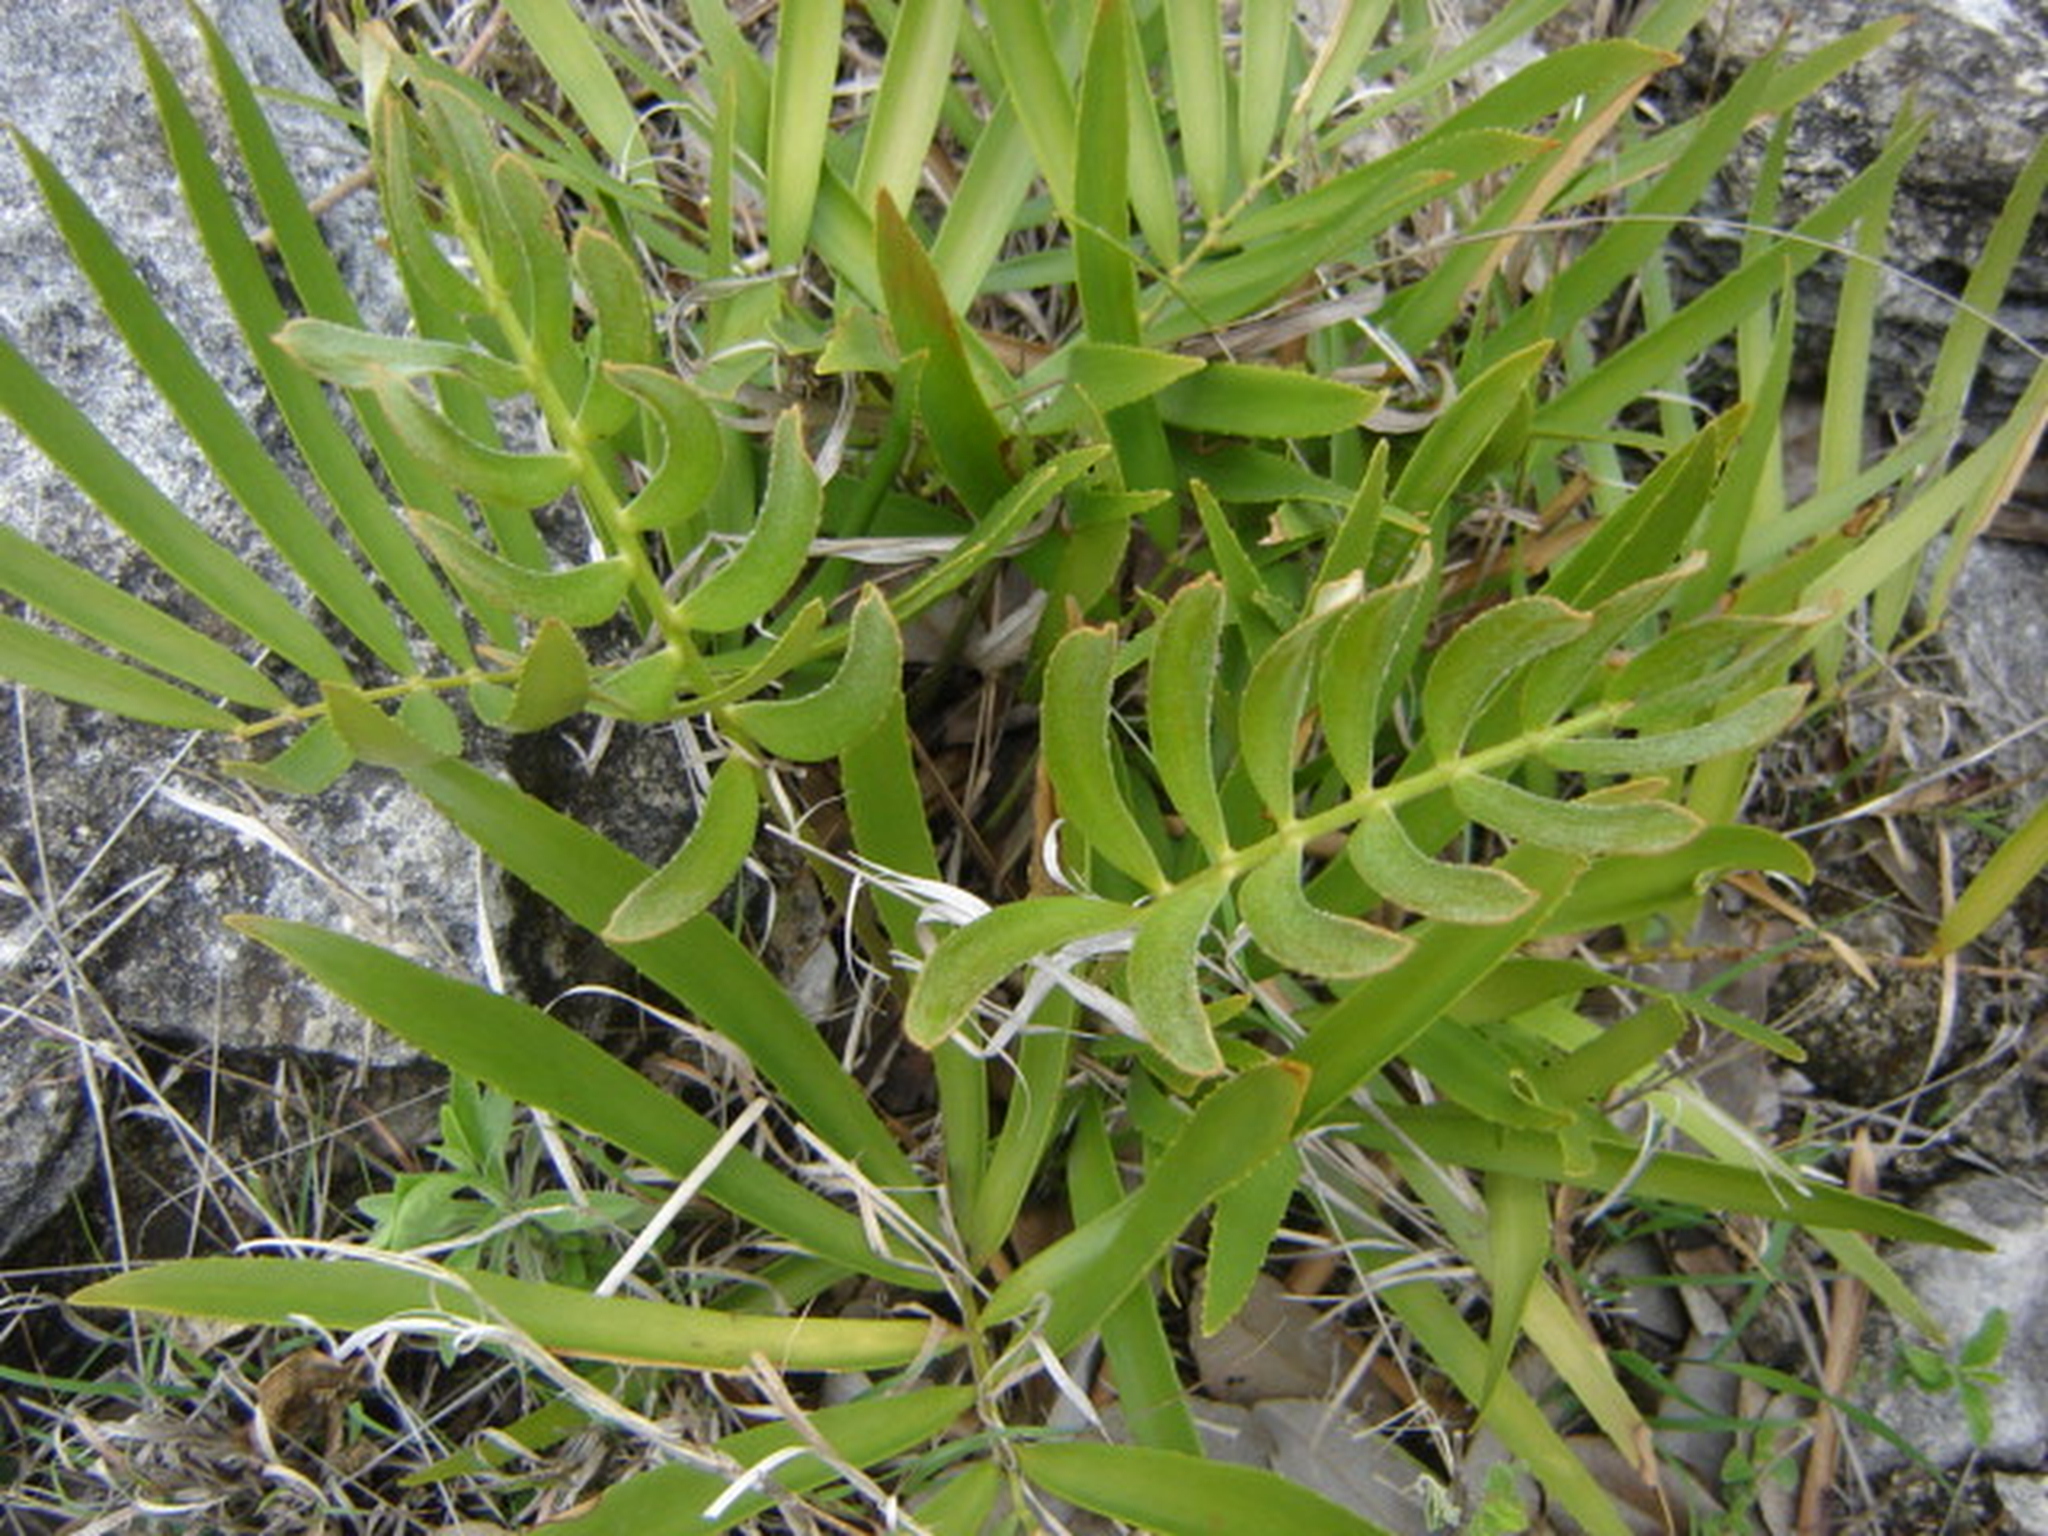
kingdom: Plantae
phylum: Tracheophyta
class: Cycadopsida
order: Cycadales
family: Zamiaceae
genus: Zamia
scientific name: Zamia loddigesii
